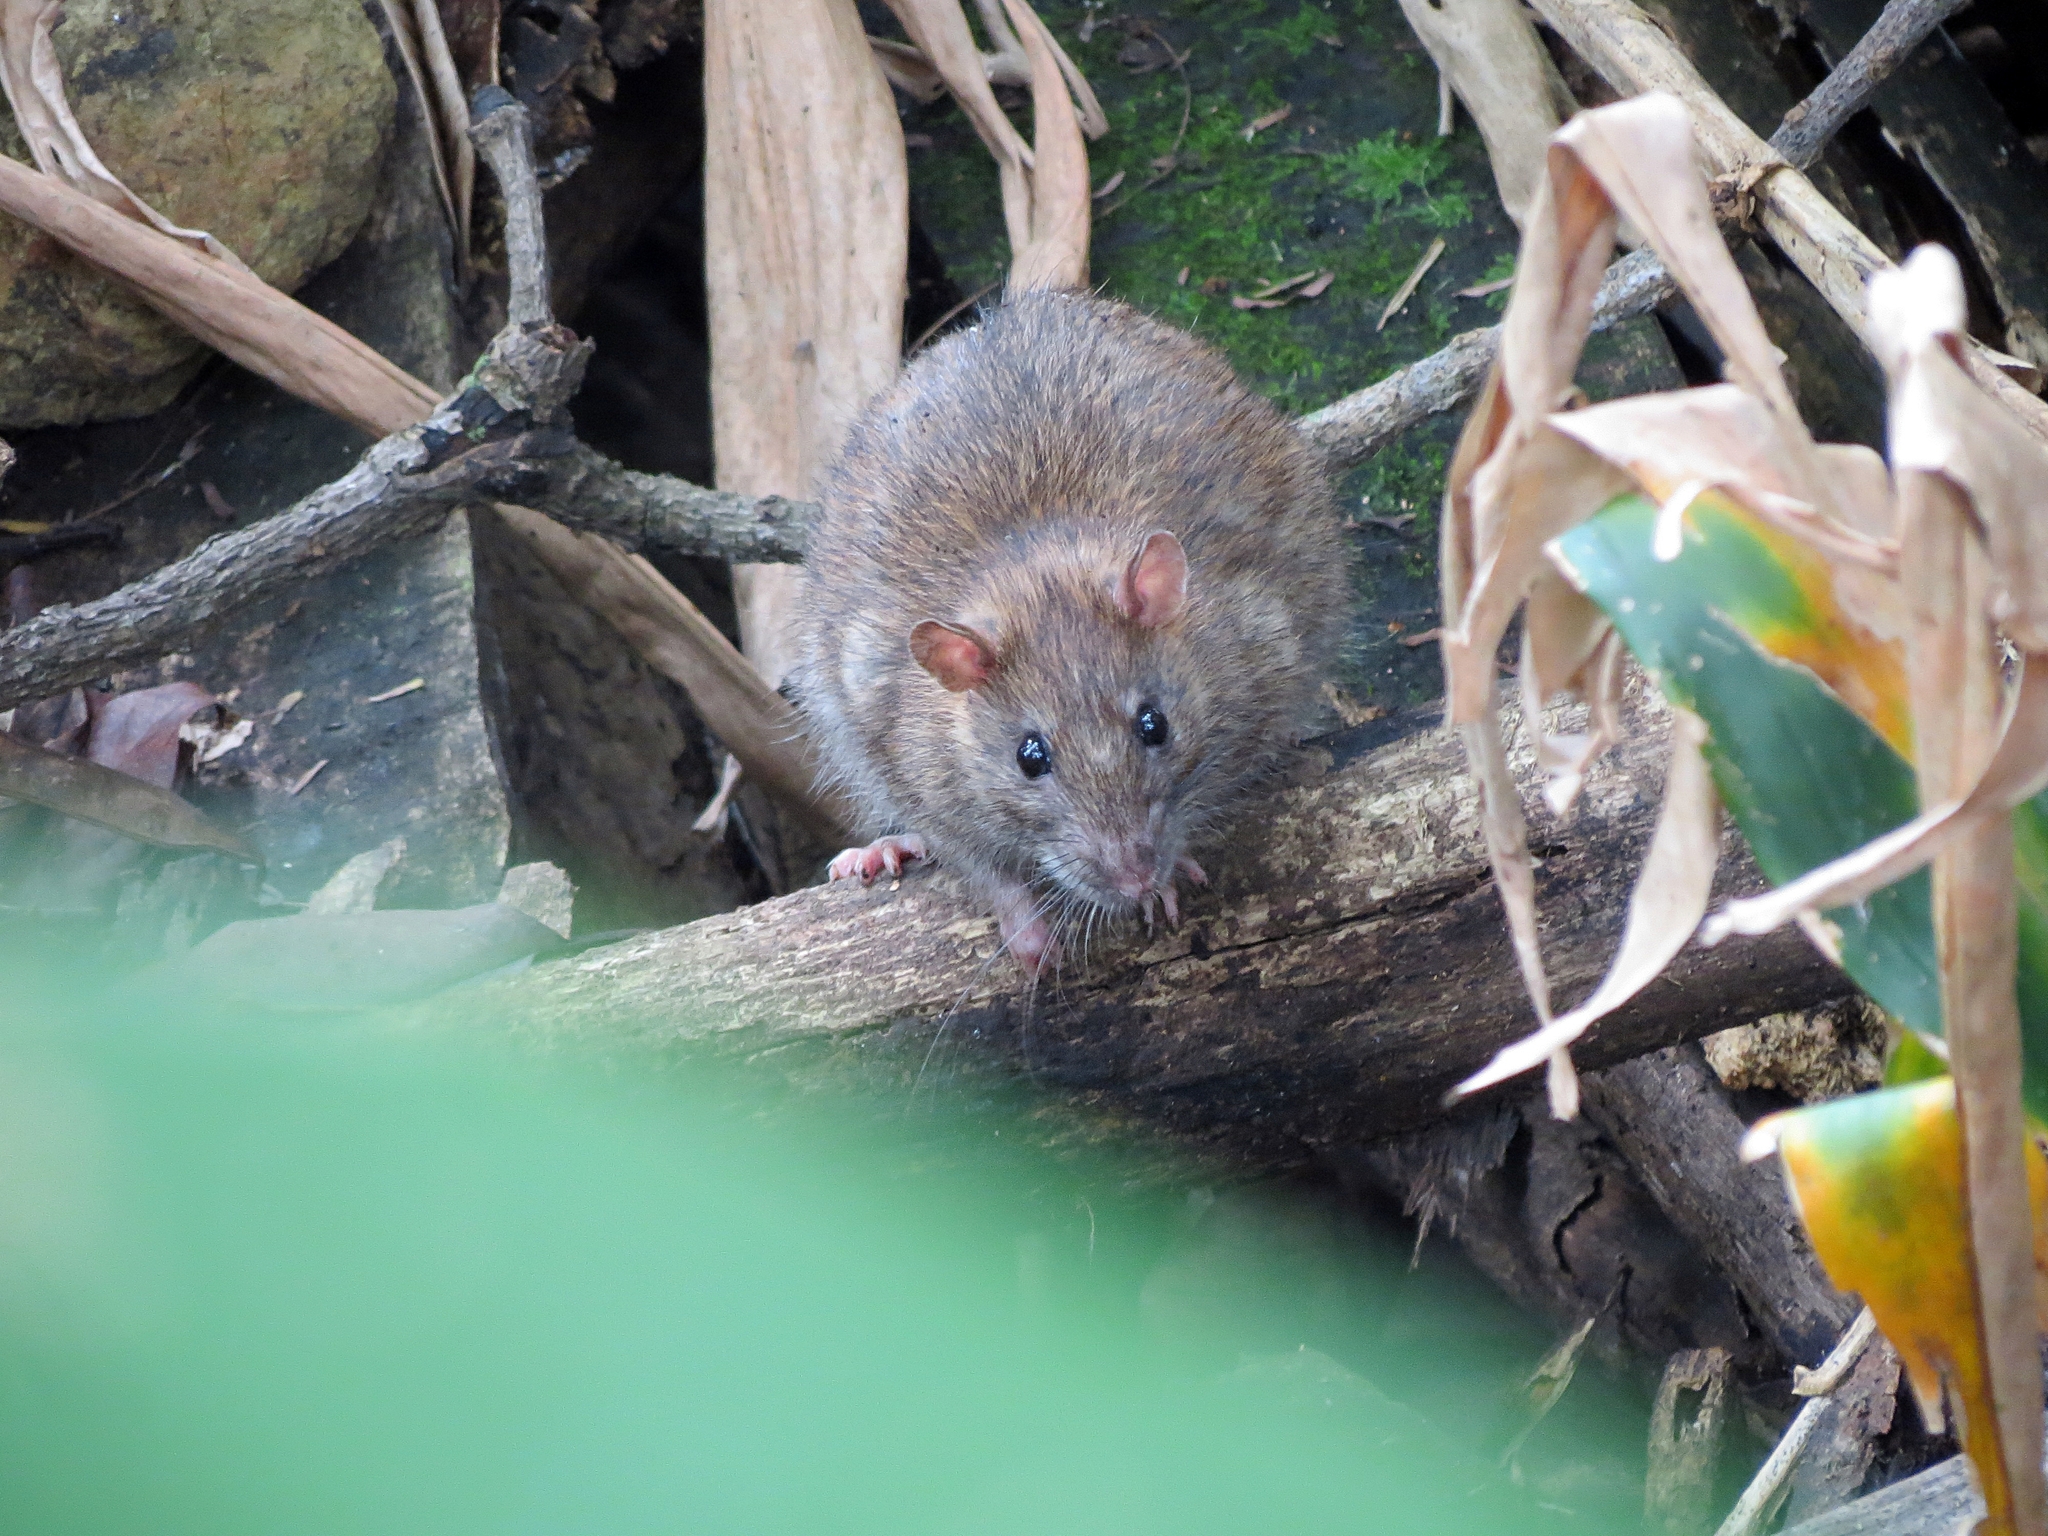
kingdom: Animalia
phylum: Chordata
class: Mammalia
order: Rodentia
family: Muridae
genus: Rattus
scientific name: Rattus norvegicus
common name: Brown rat
